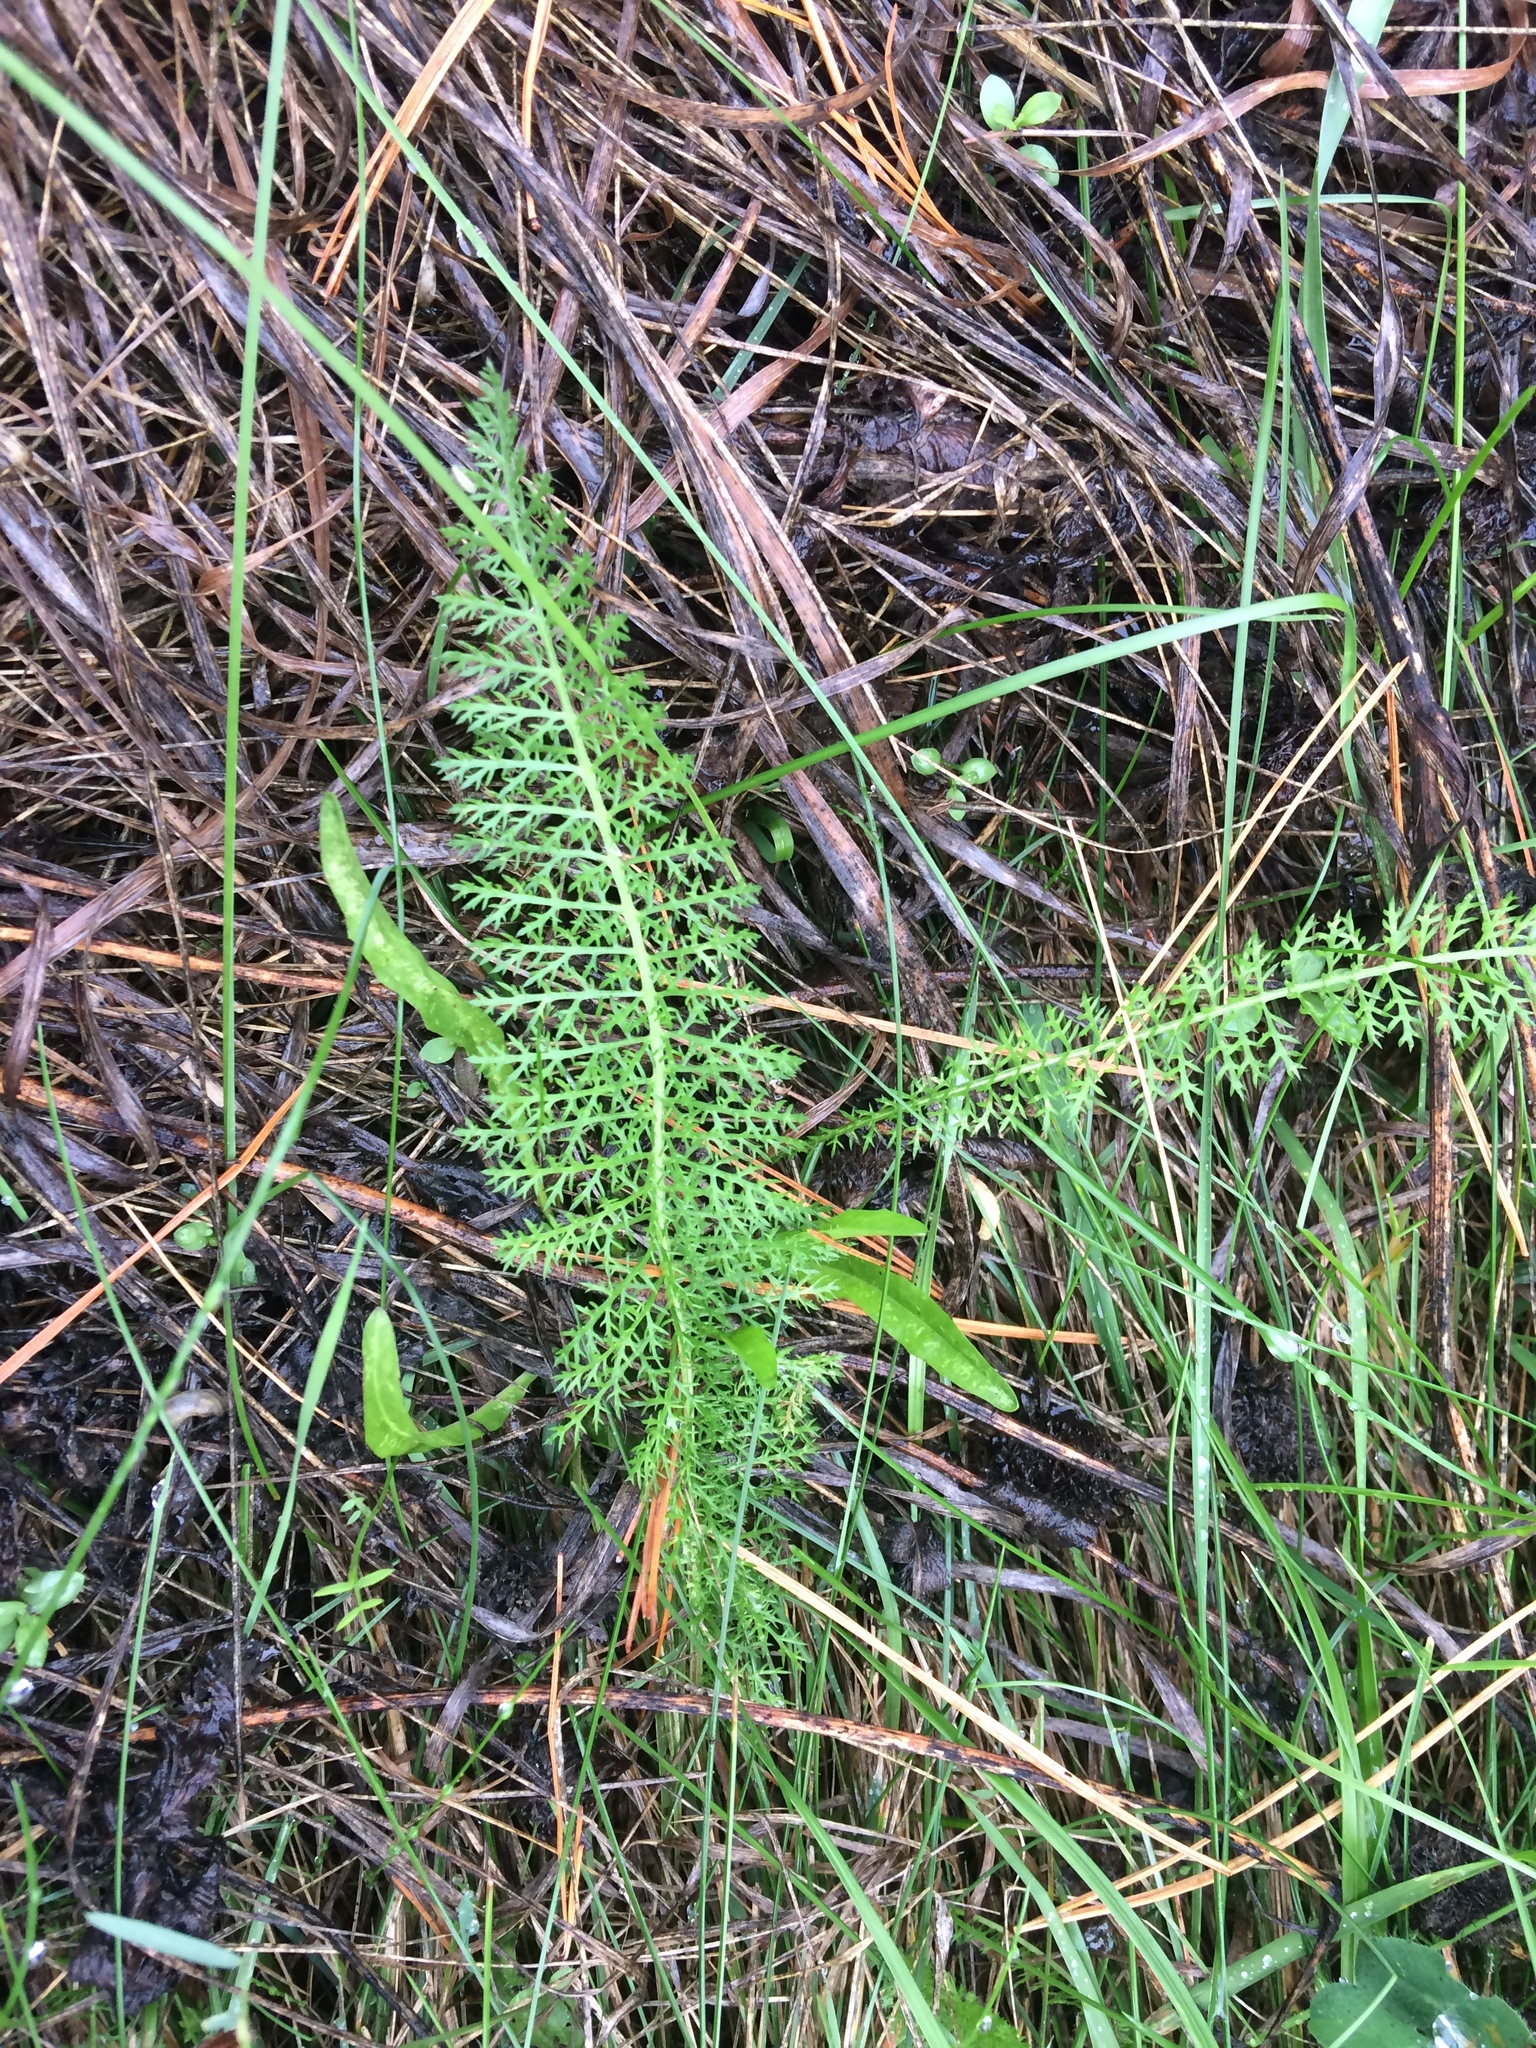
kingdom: Plantae
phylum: Tracheophyta
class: Magnoliopsida
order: Asterales
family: Asteraceae
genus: Achillea
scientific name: Achillea millefolium
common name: Yarrow
